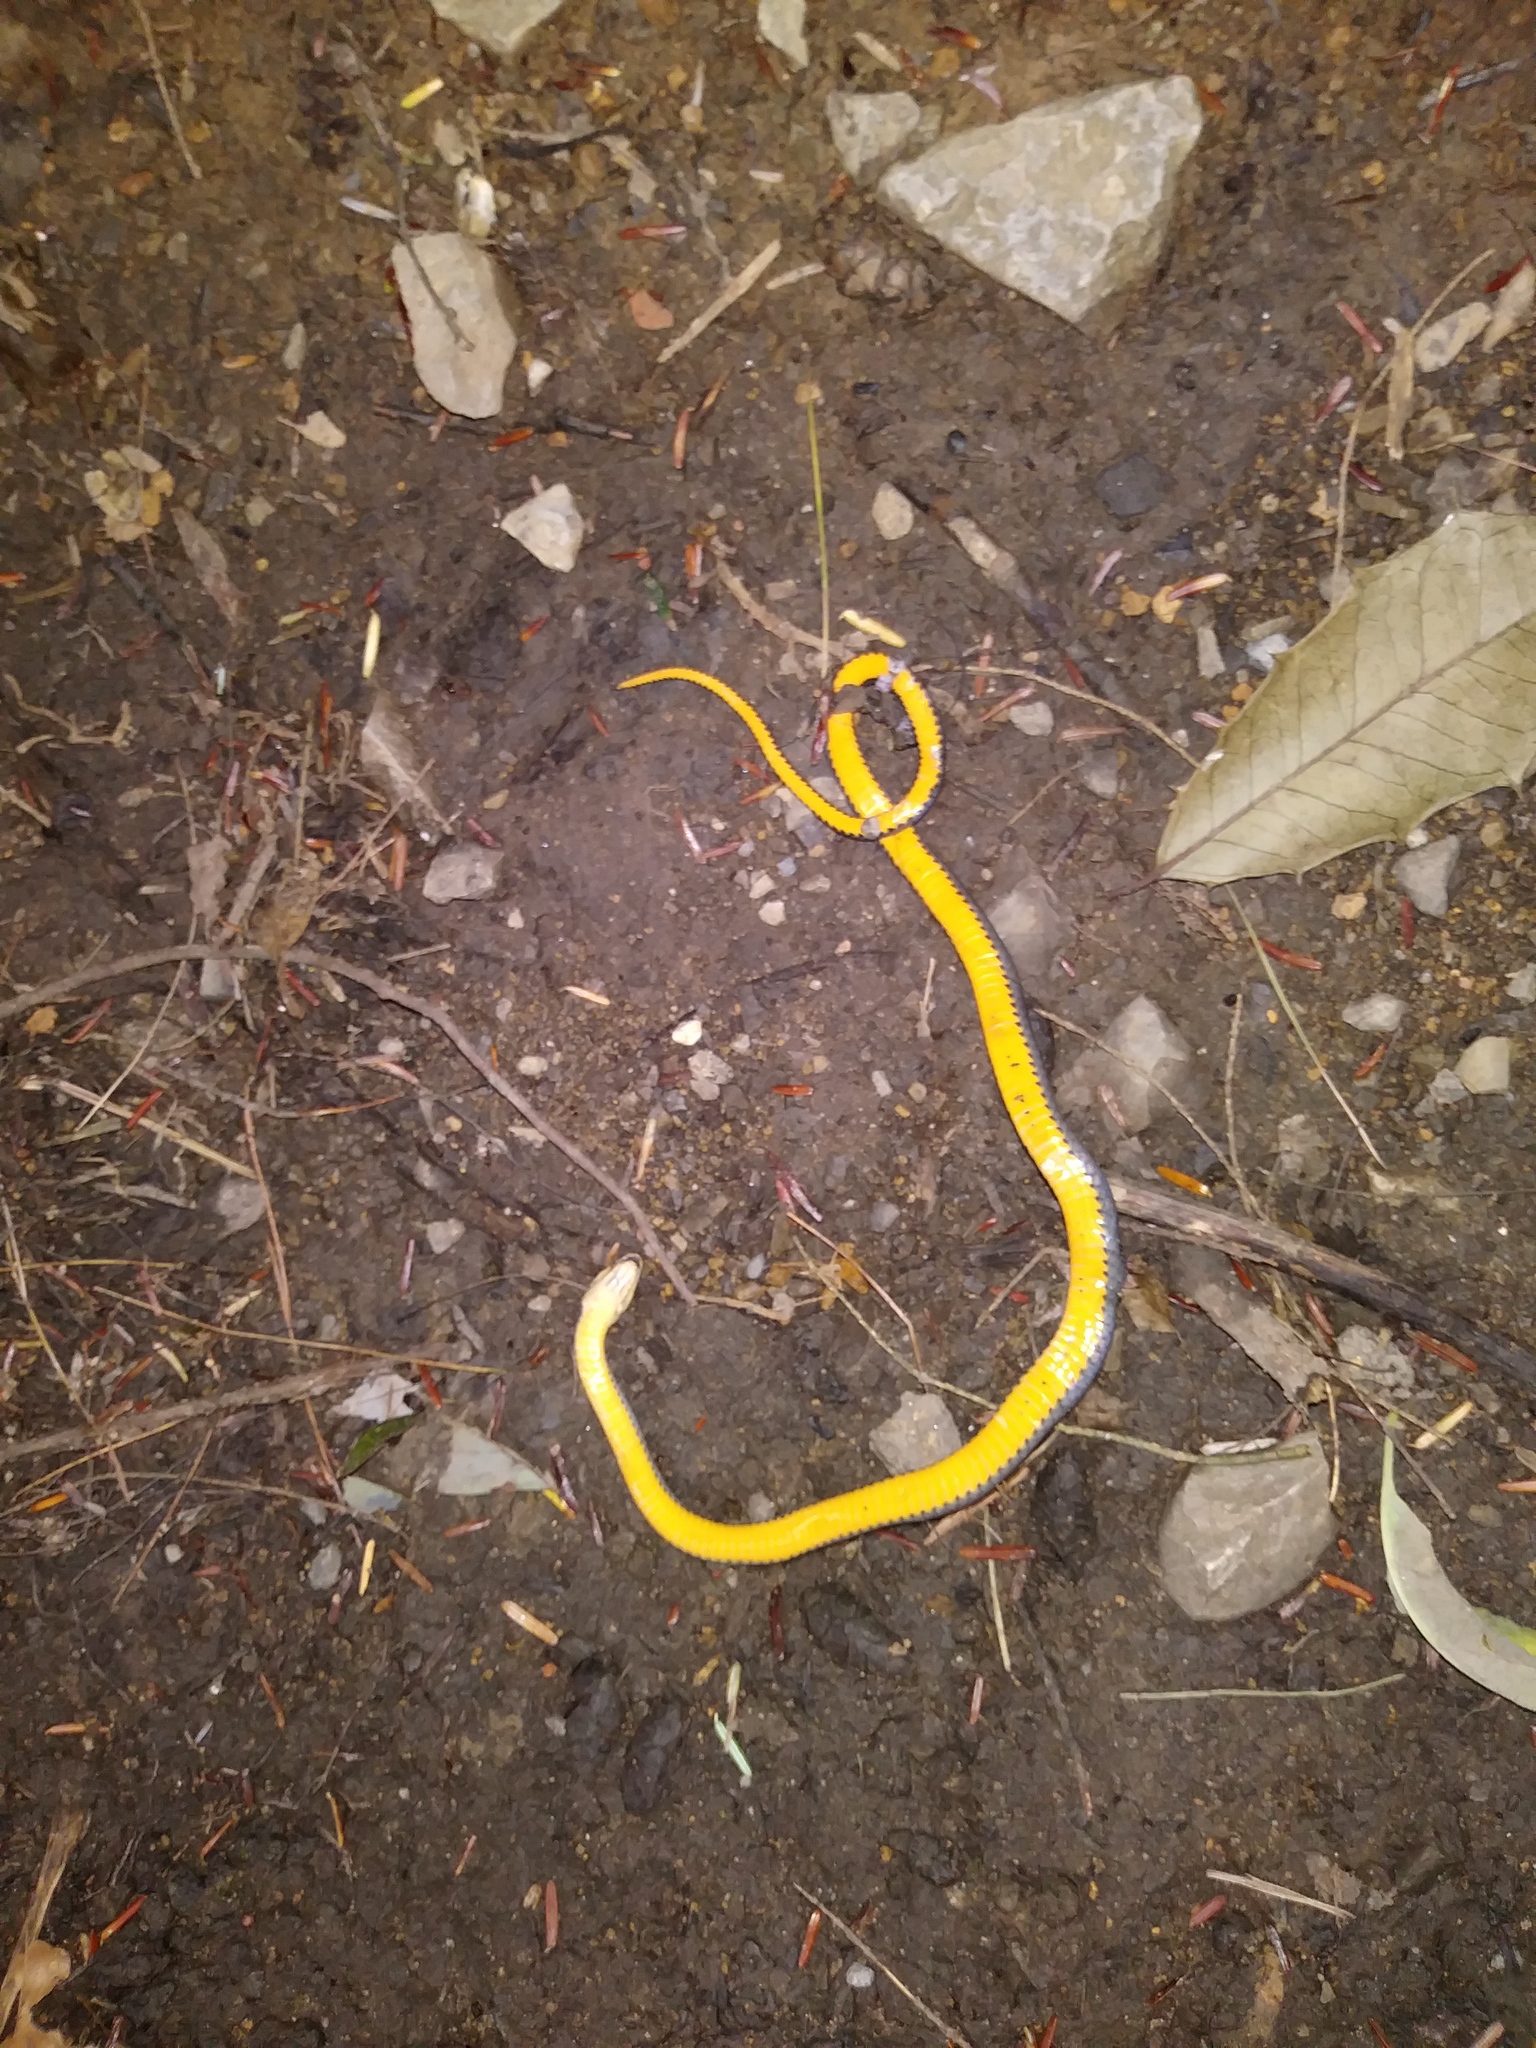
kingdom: Animalia
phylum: Chordata
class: Squamata
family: Colubridae
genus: Diadophis
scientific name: Diadophis punctatus
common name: Ringneck snake
